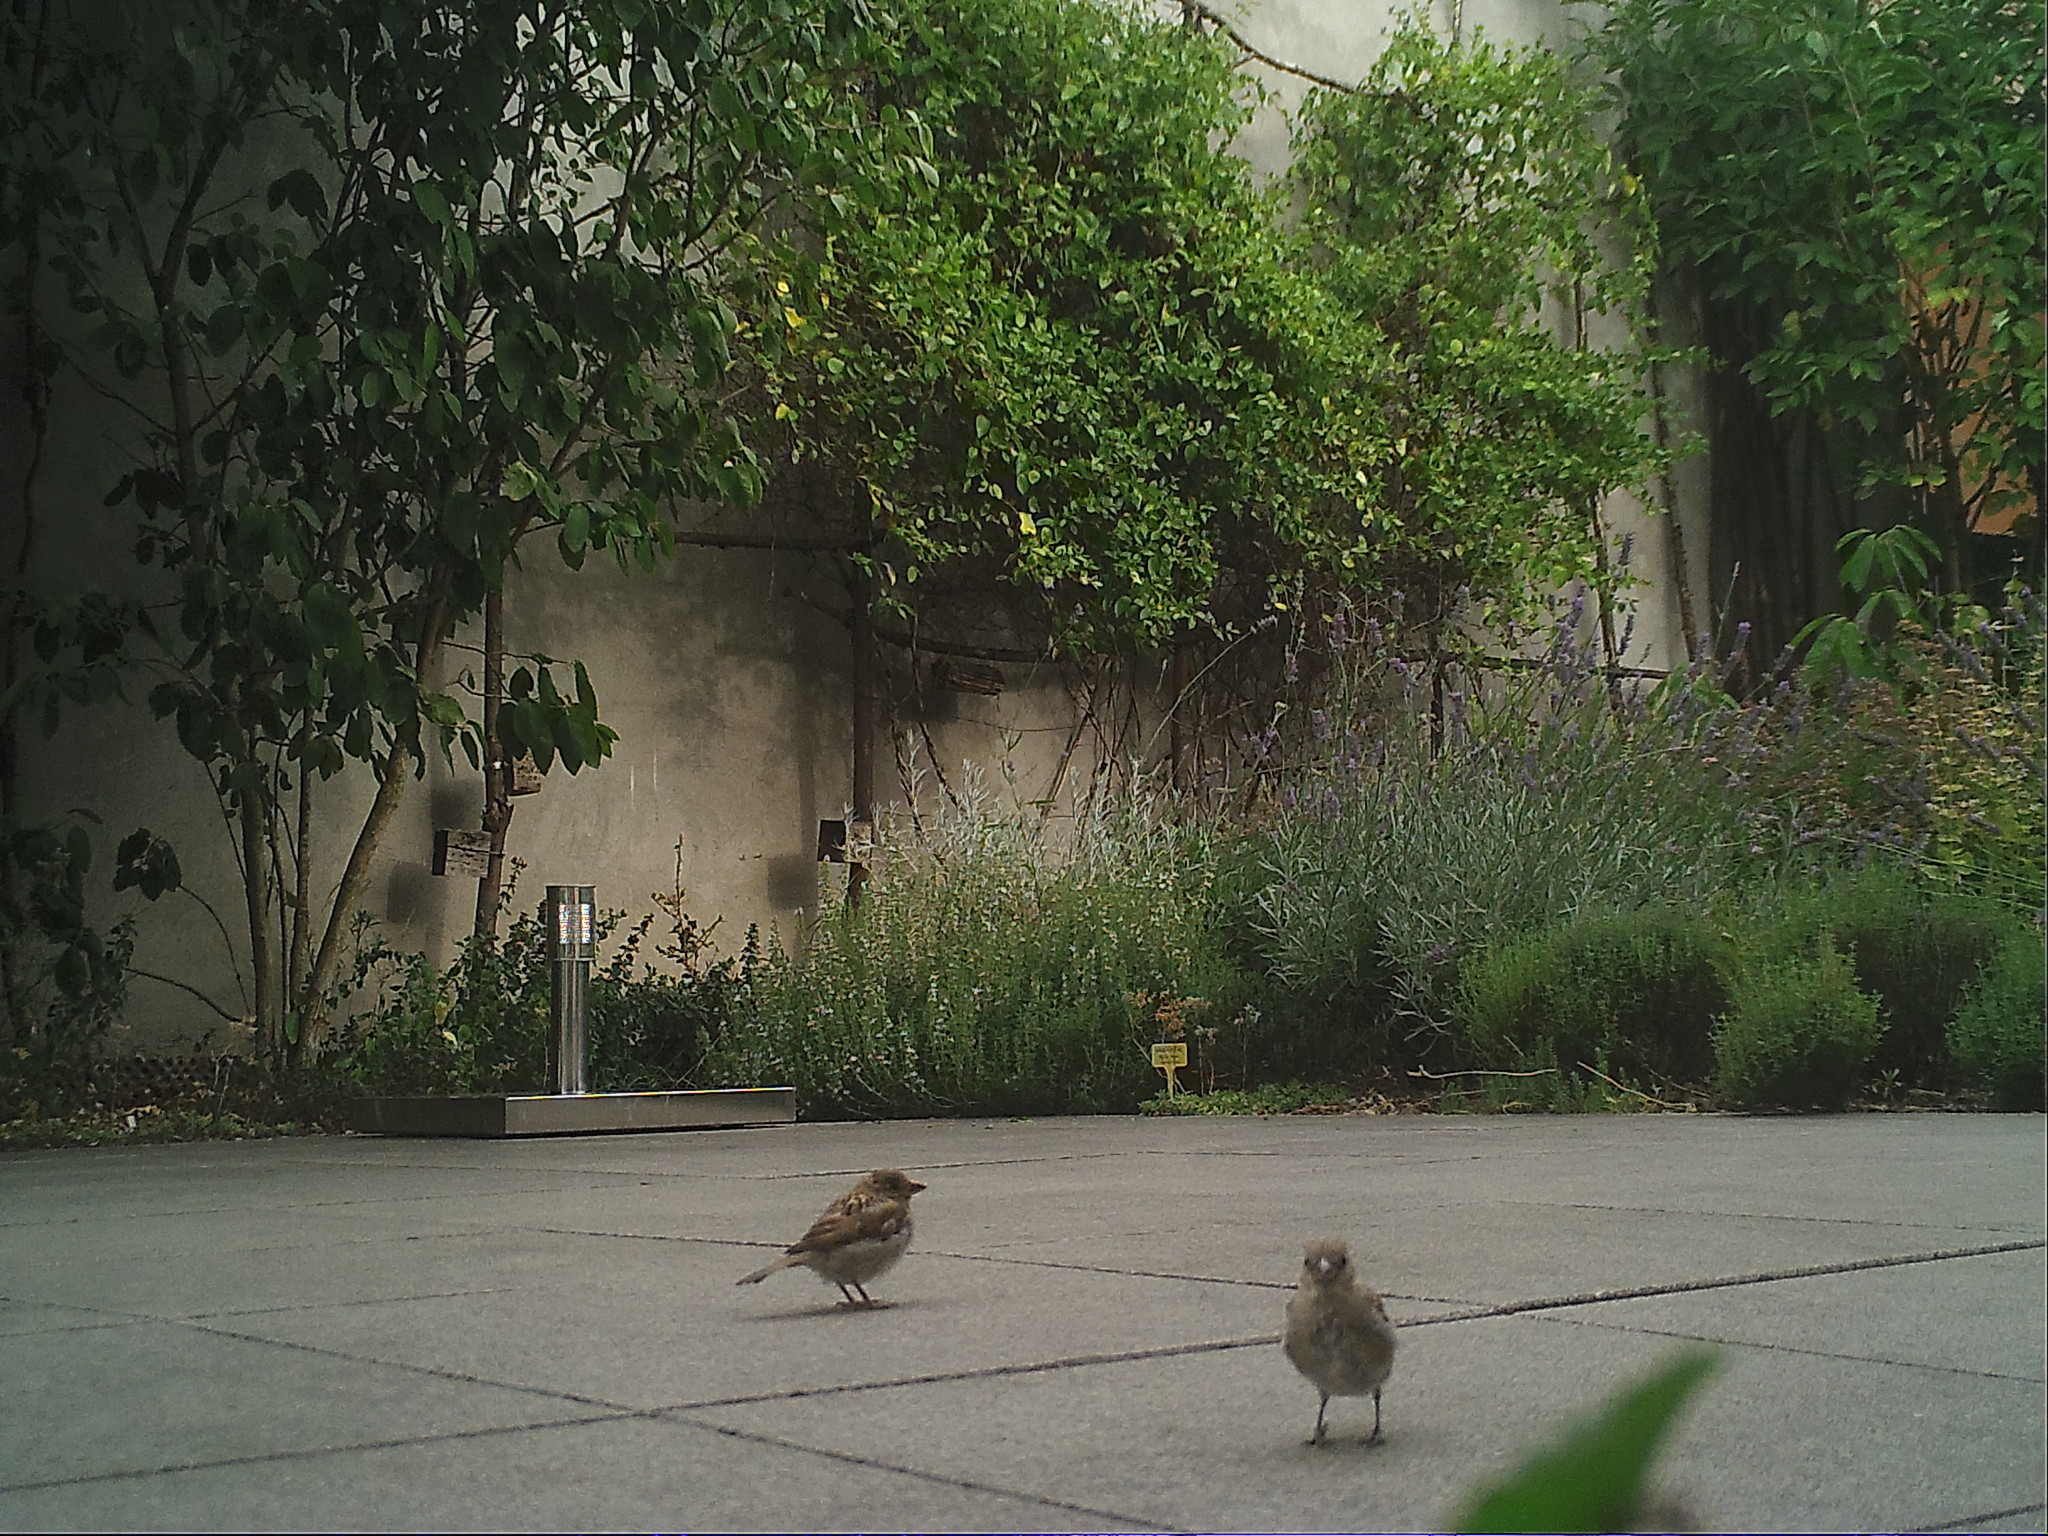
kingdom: Animalia
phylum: Chordata
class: Aves
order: Passeriformes
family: Passeridae
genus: Passer
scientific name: Passer domesticus
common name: House sparrow
